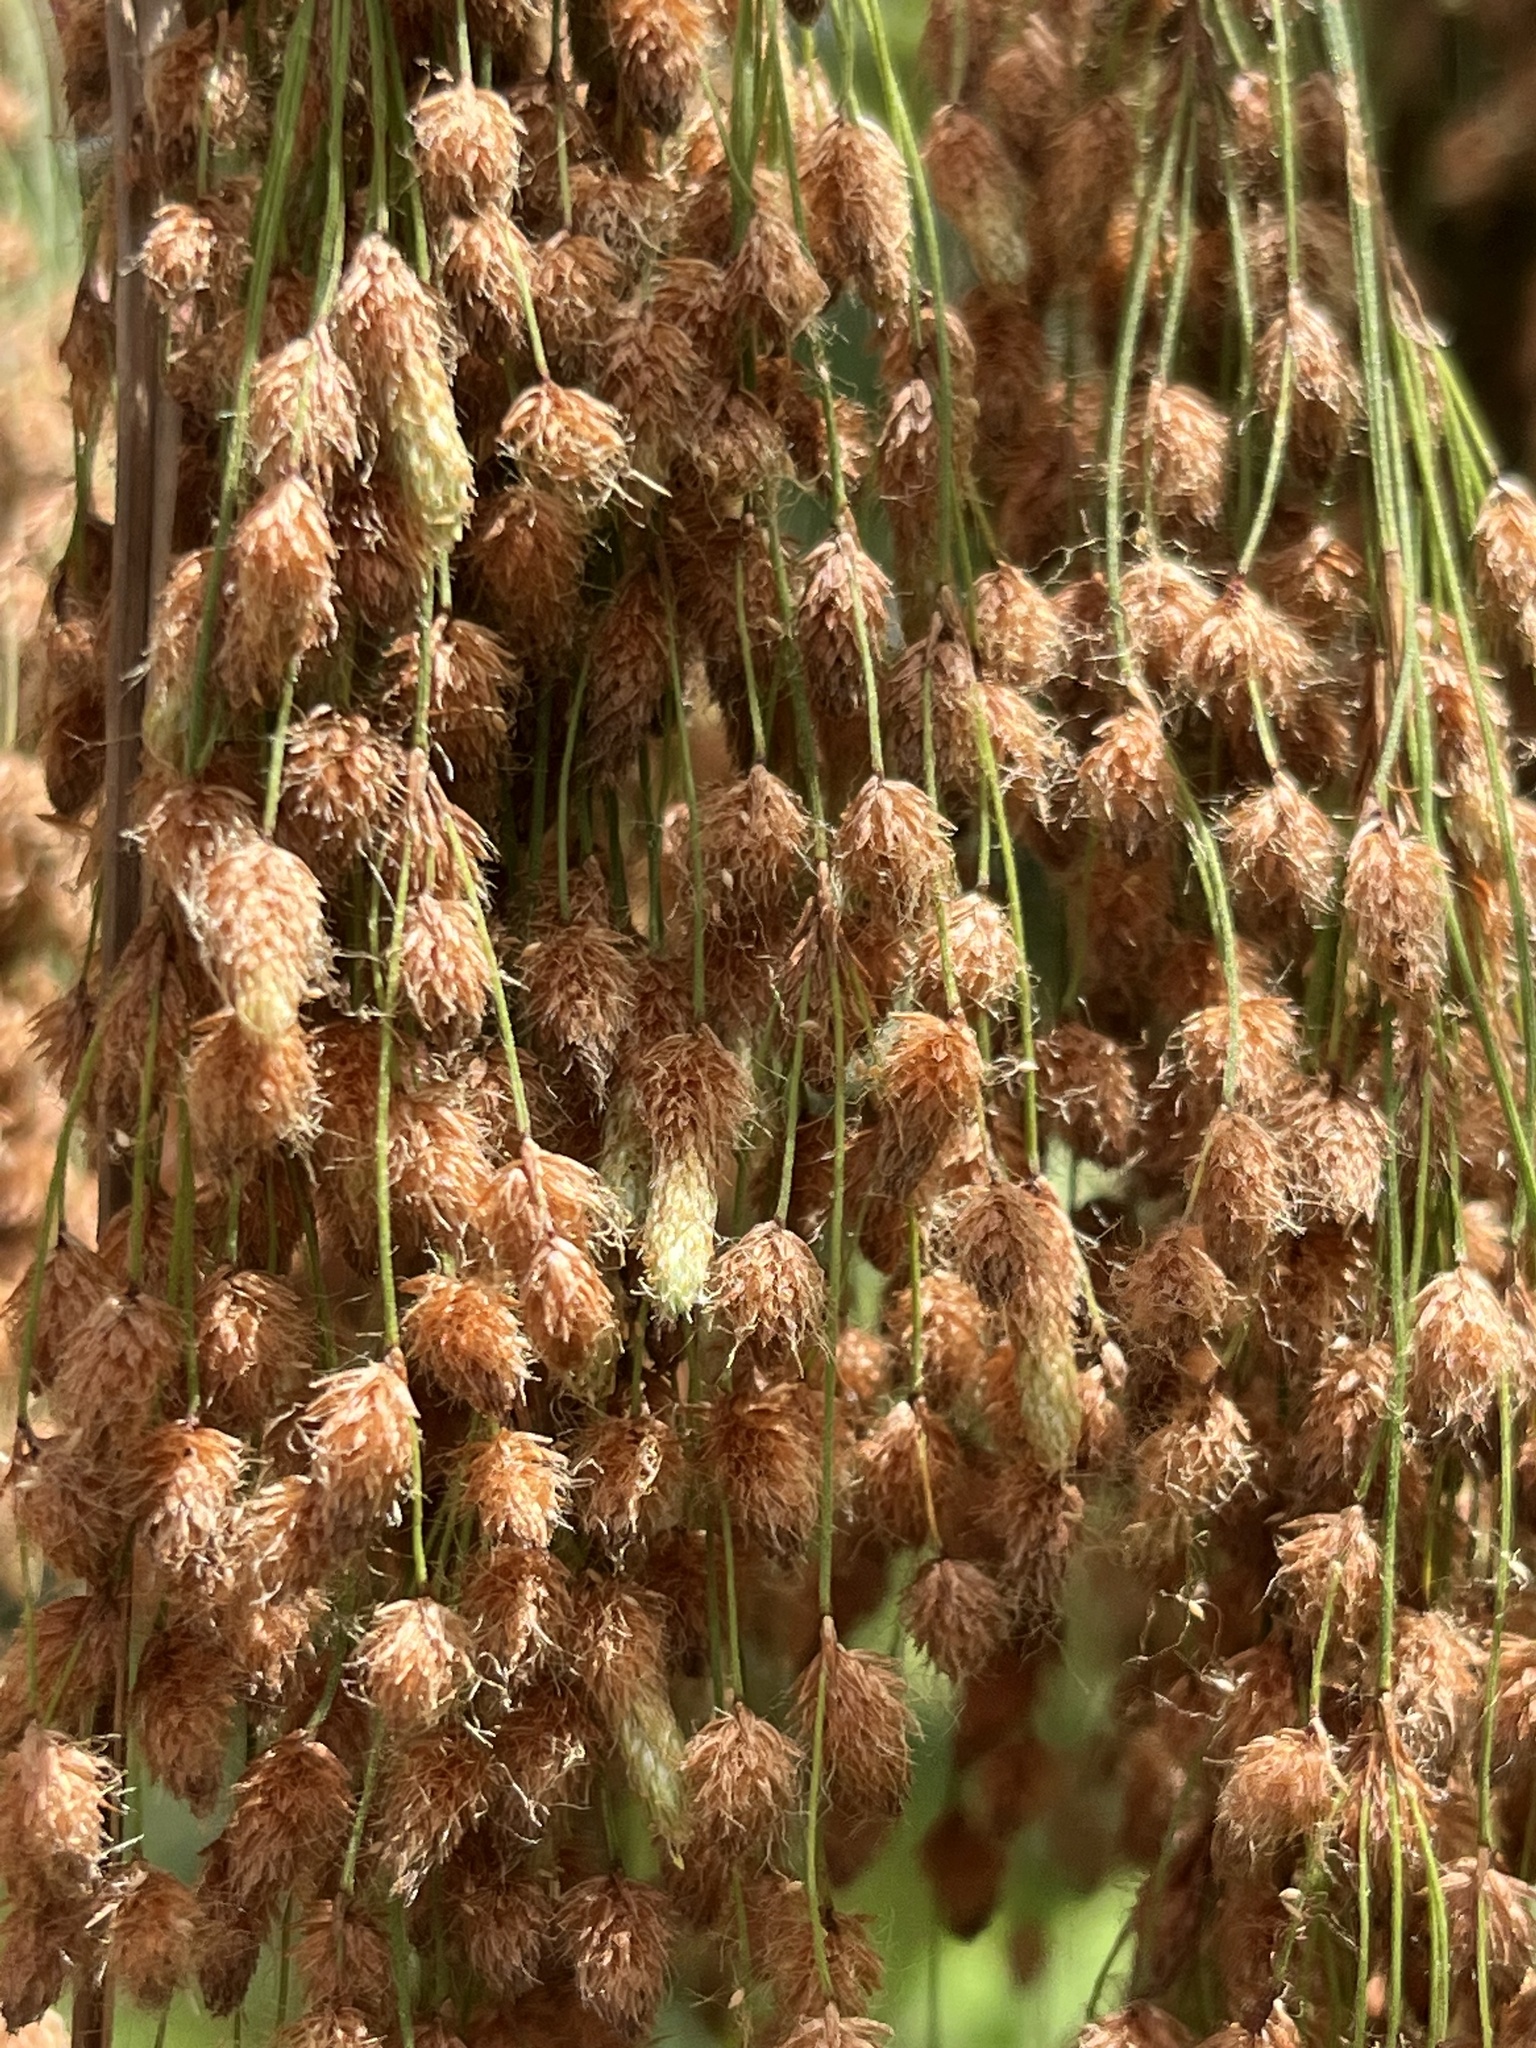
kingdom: Plantae
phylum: Tracheophyta
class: Liliopsida
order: Poales
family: Cyperaceae
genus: Scirpus
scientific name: Scirpus cyperinus
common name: Black-sheathed bulrush
